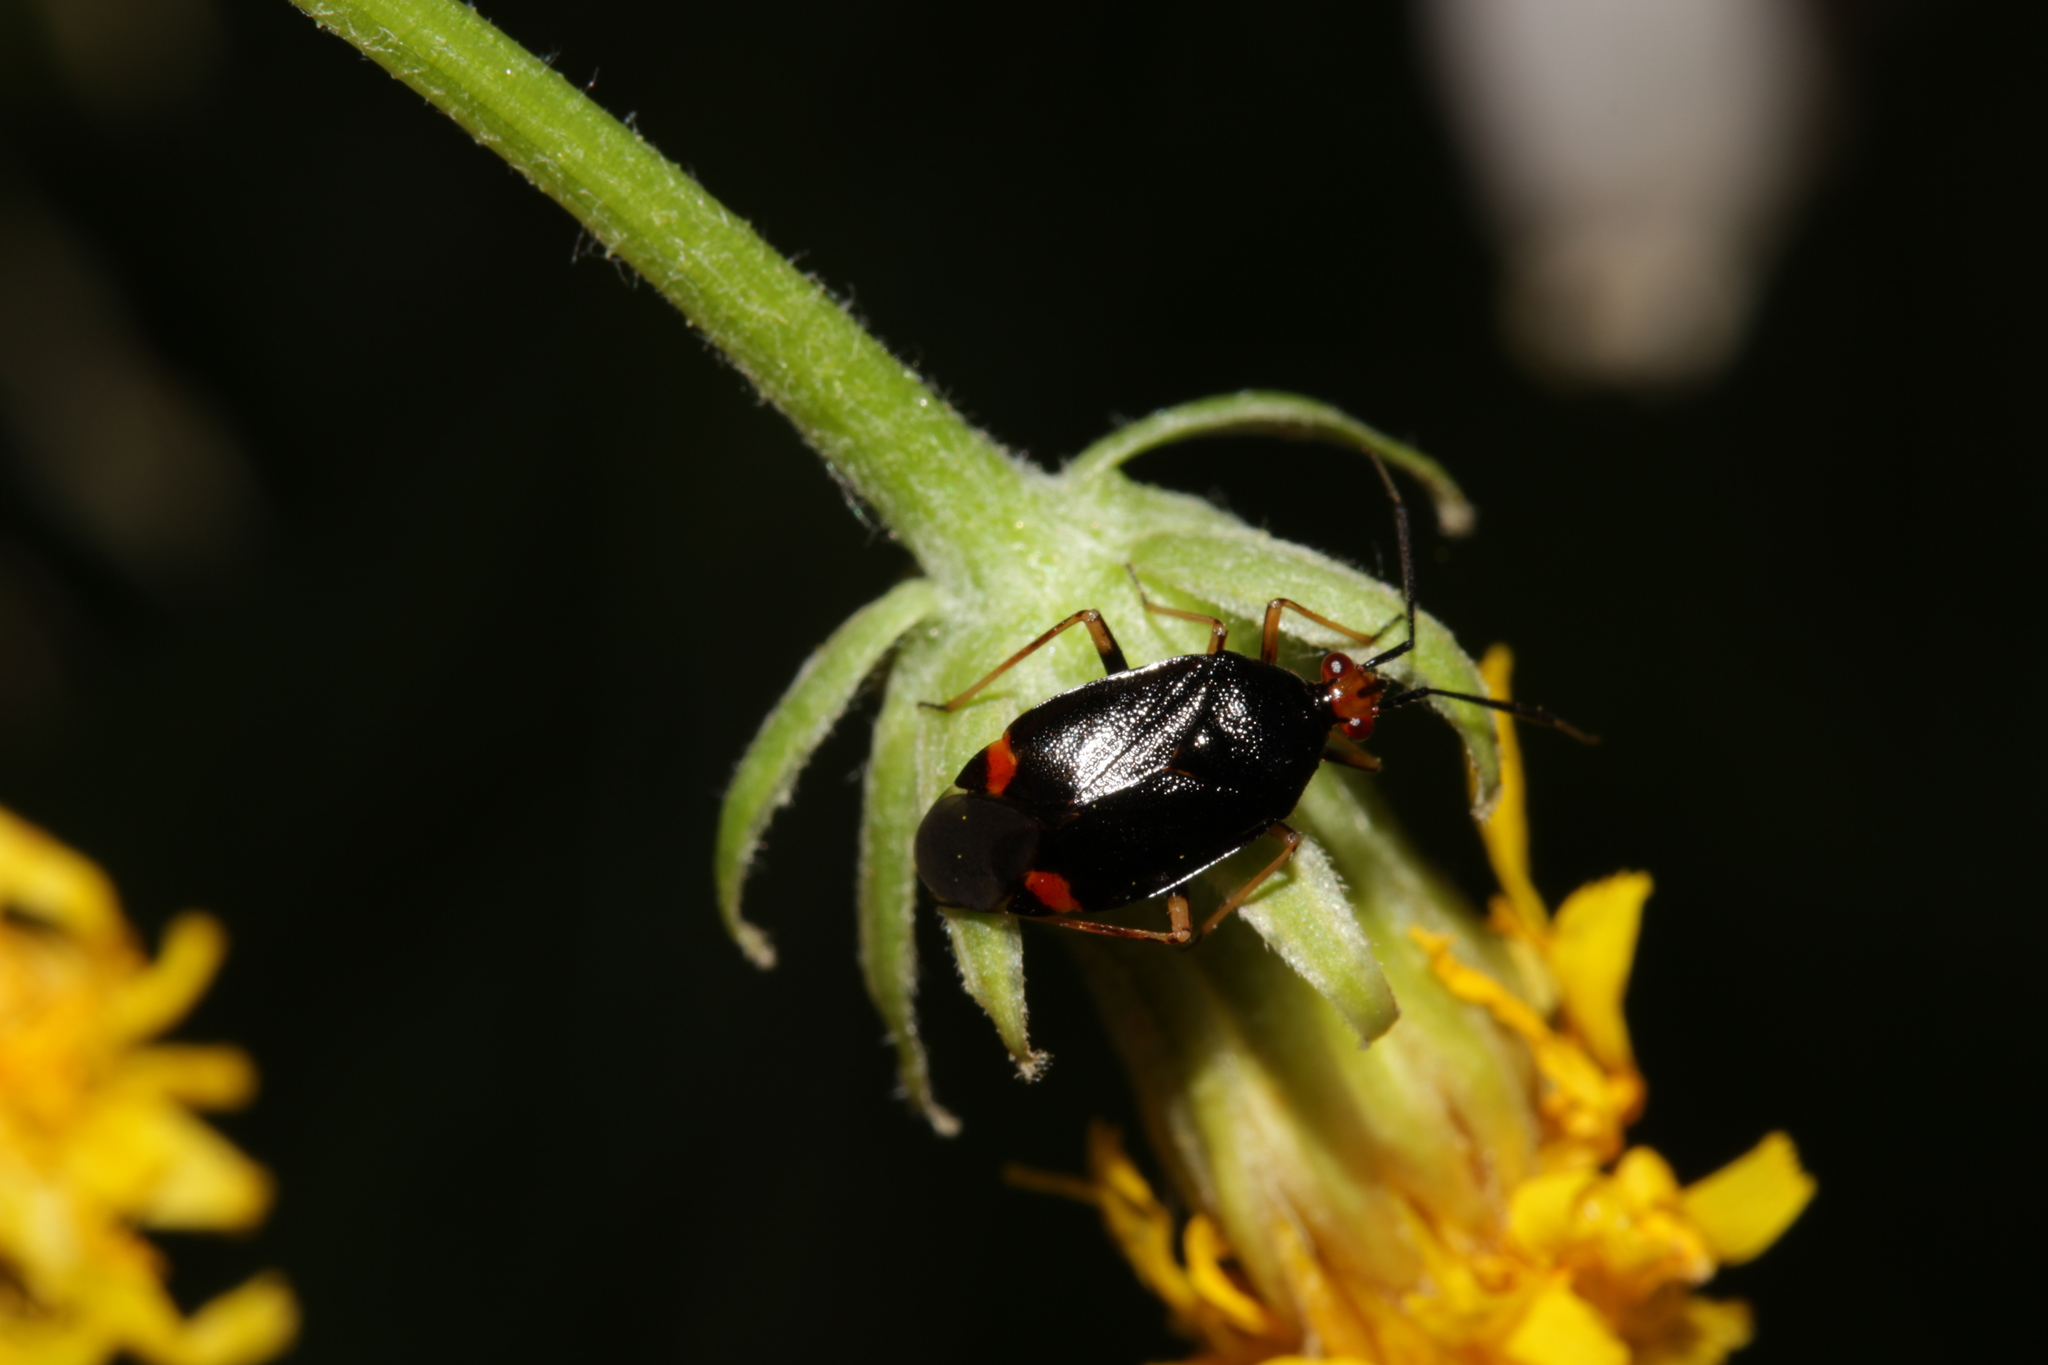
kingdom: Animalia
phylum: Arthropoda
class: Insecta
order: Hemiptera
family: Miridae
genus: Deraeocoris
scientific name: Deraeocoris ruber
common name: Plant bug
